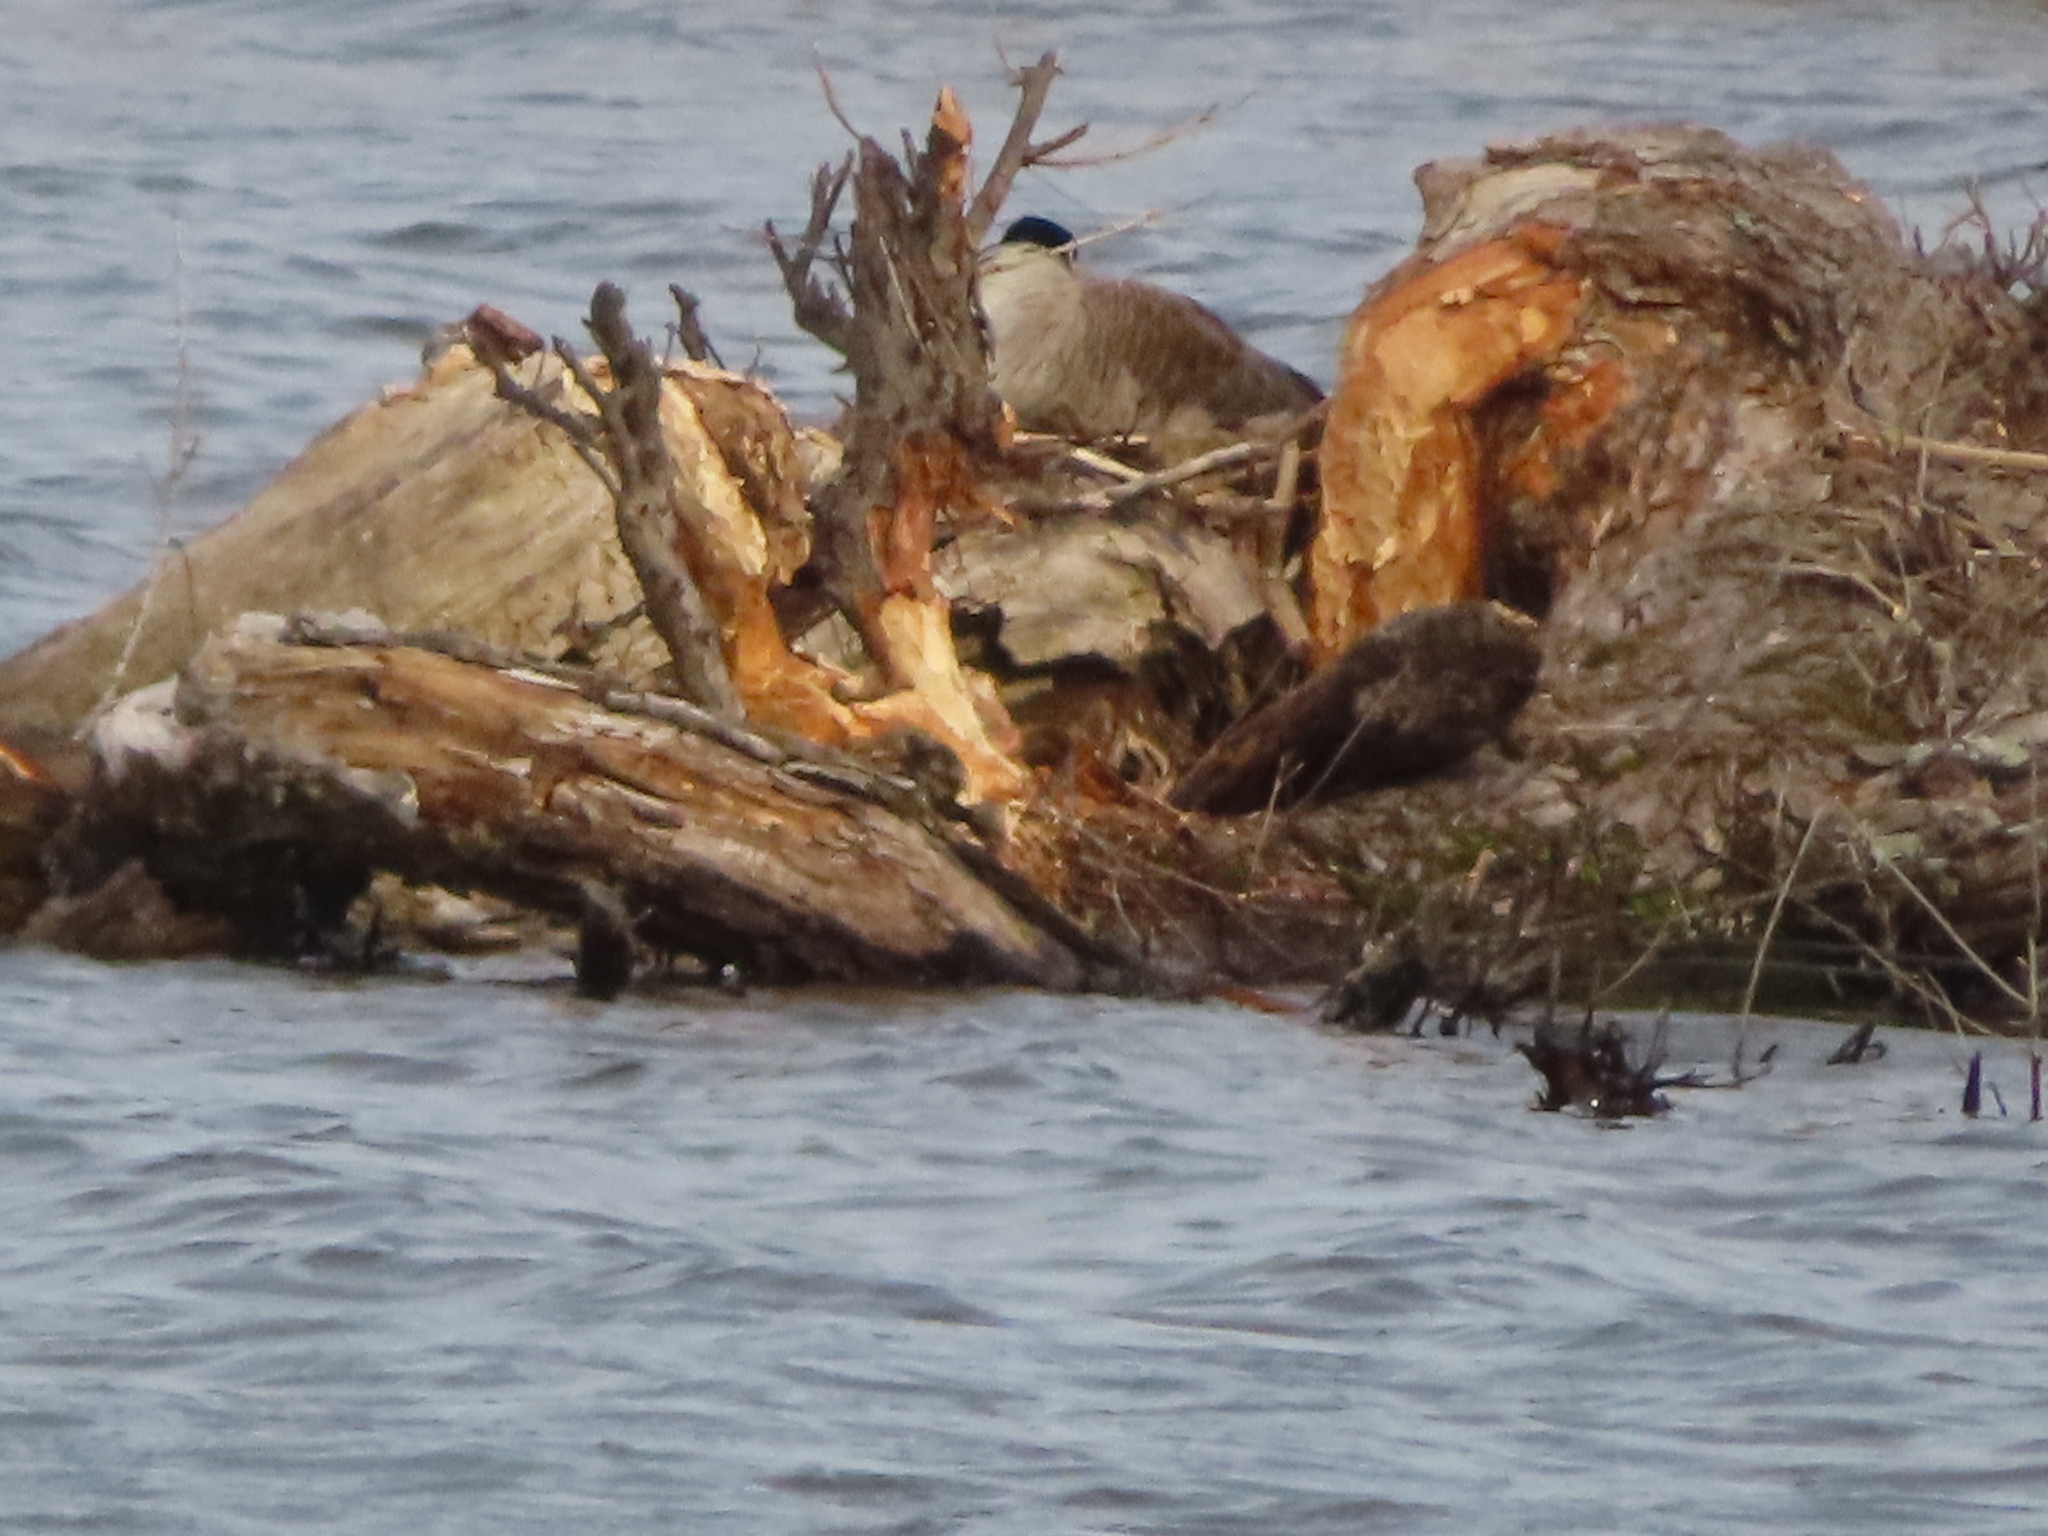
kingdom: Animalia
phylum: Chordata
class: Aves
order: Anseriformes
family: Anatidae
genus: Branta
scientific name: Branta canadensis
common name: Canada goose
